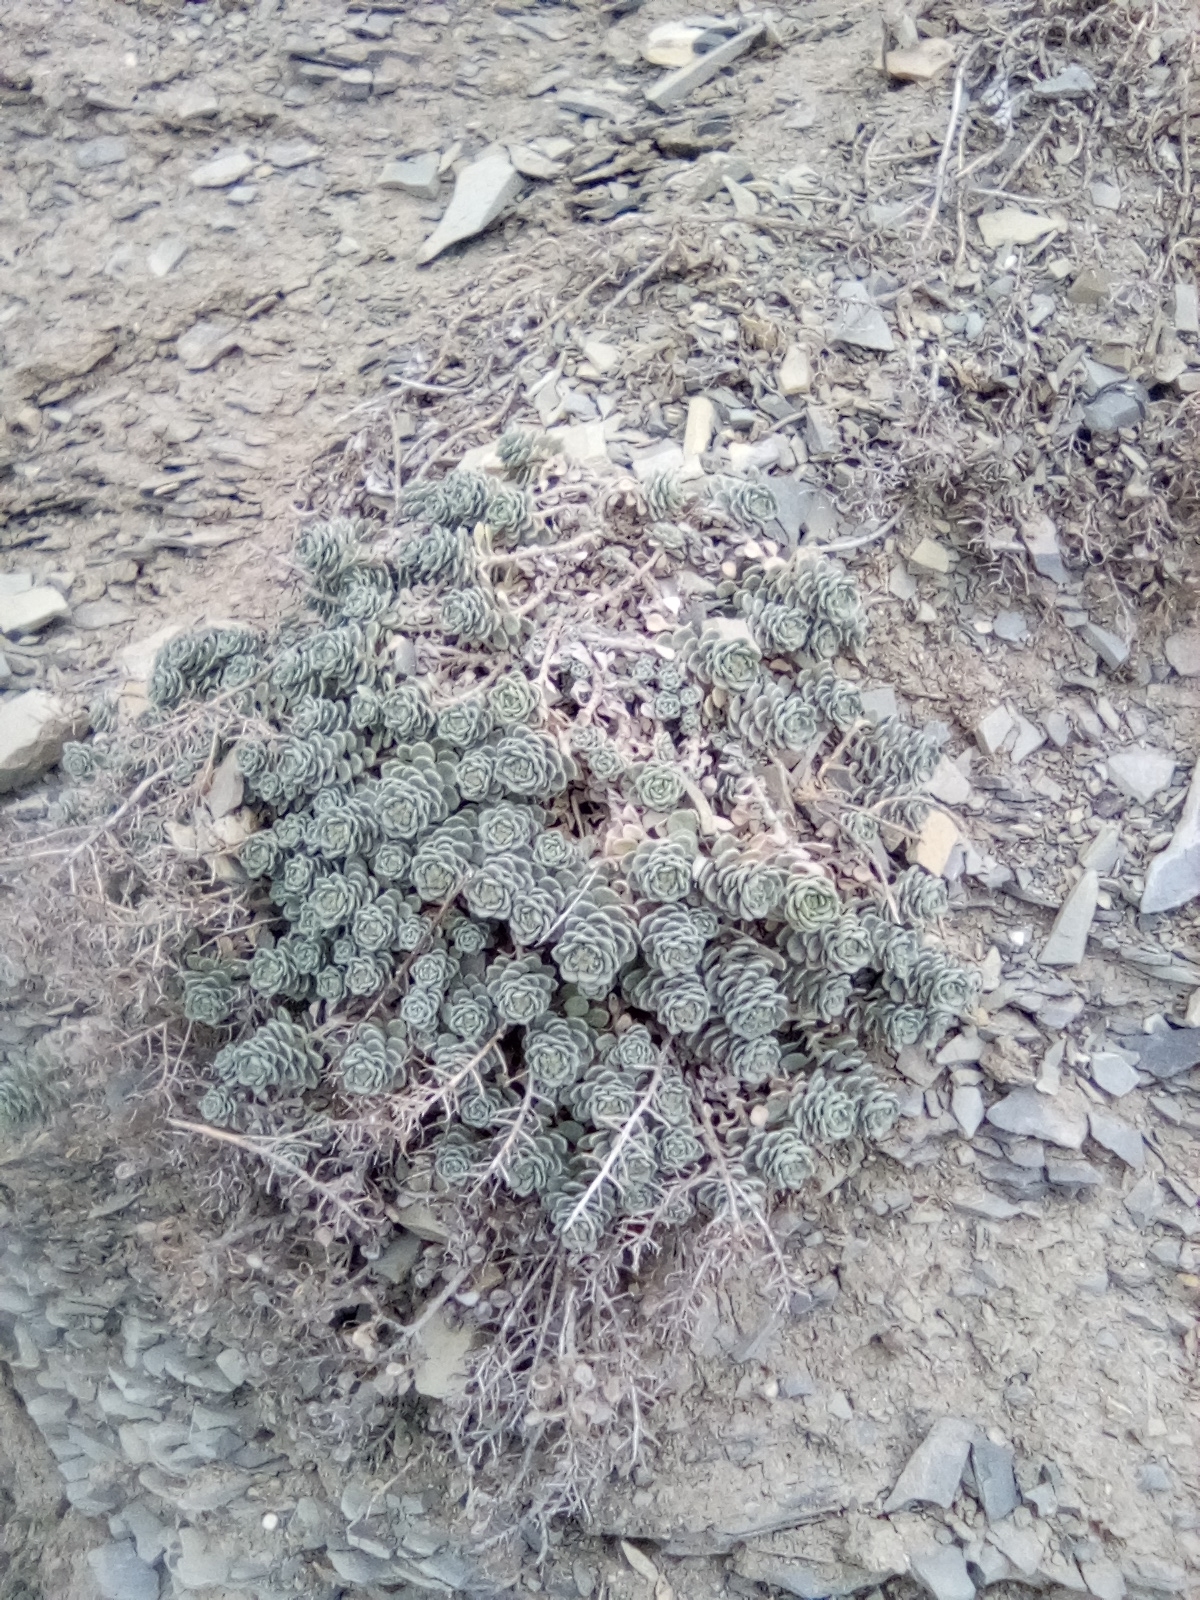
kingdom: Plantae
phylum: Tracheophyta
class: Magnoliopsida
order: Brassicales
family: Brassicaceae
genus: Odontarrhena
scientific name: Odontarrhena obtusifolia
